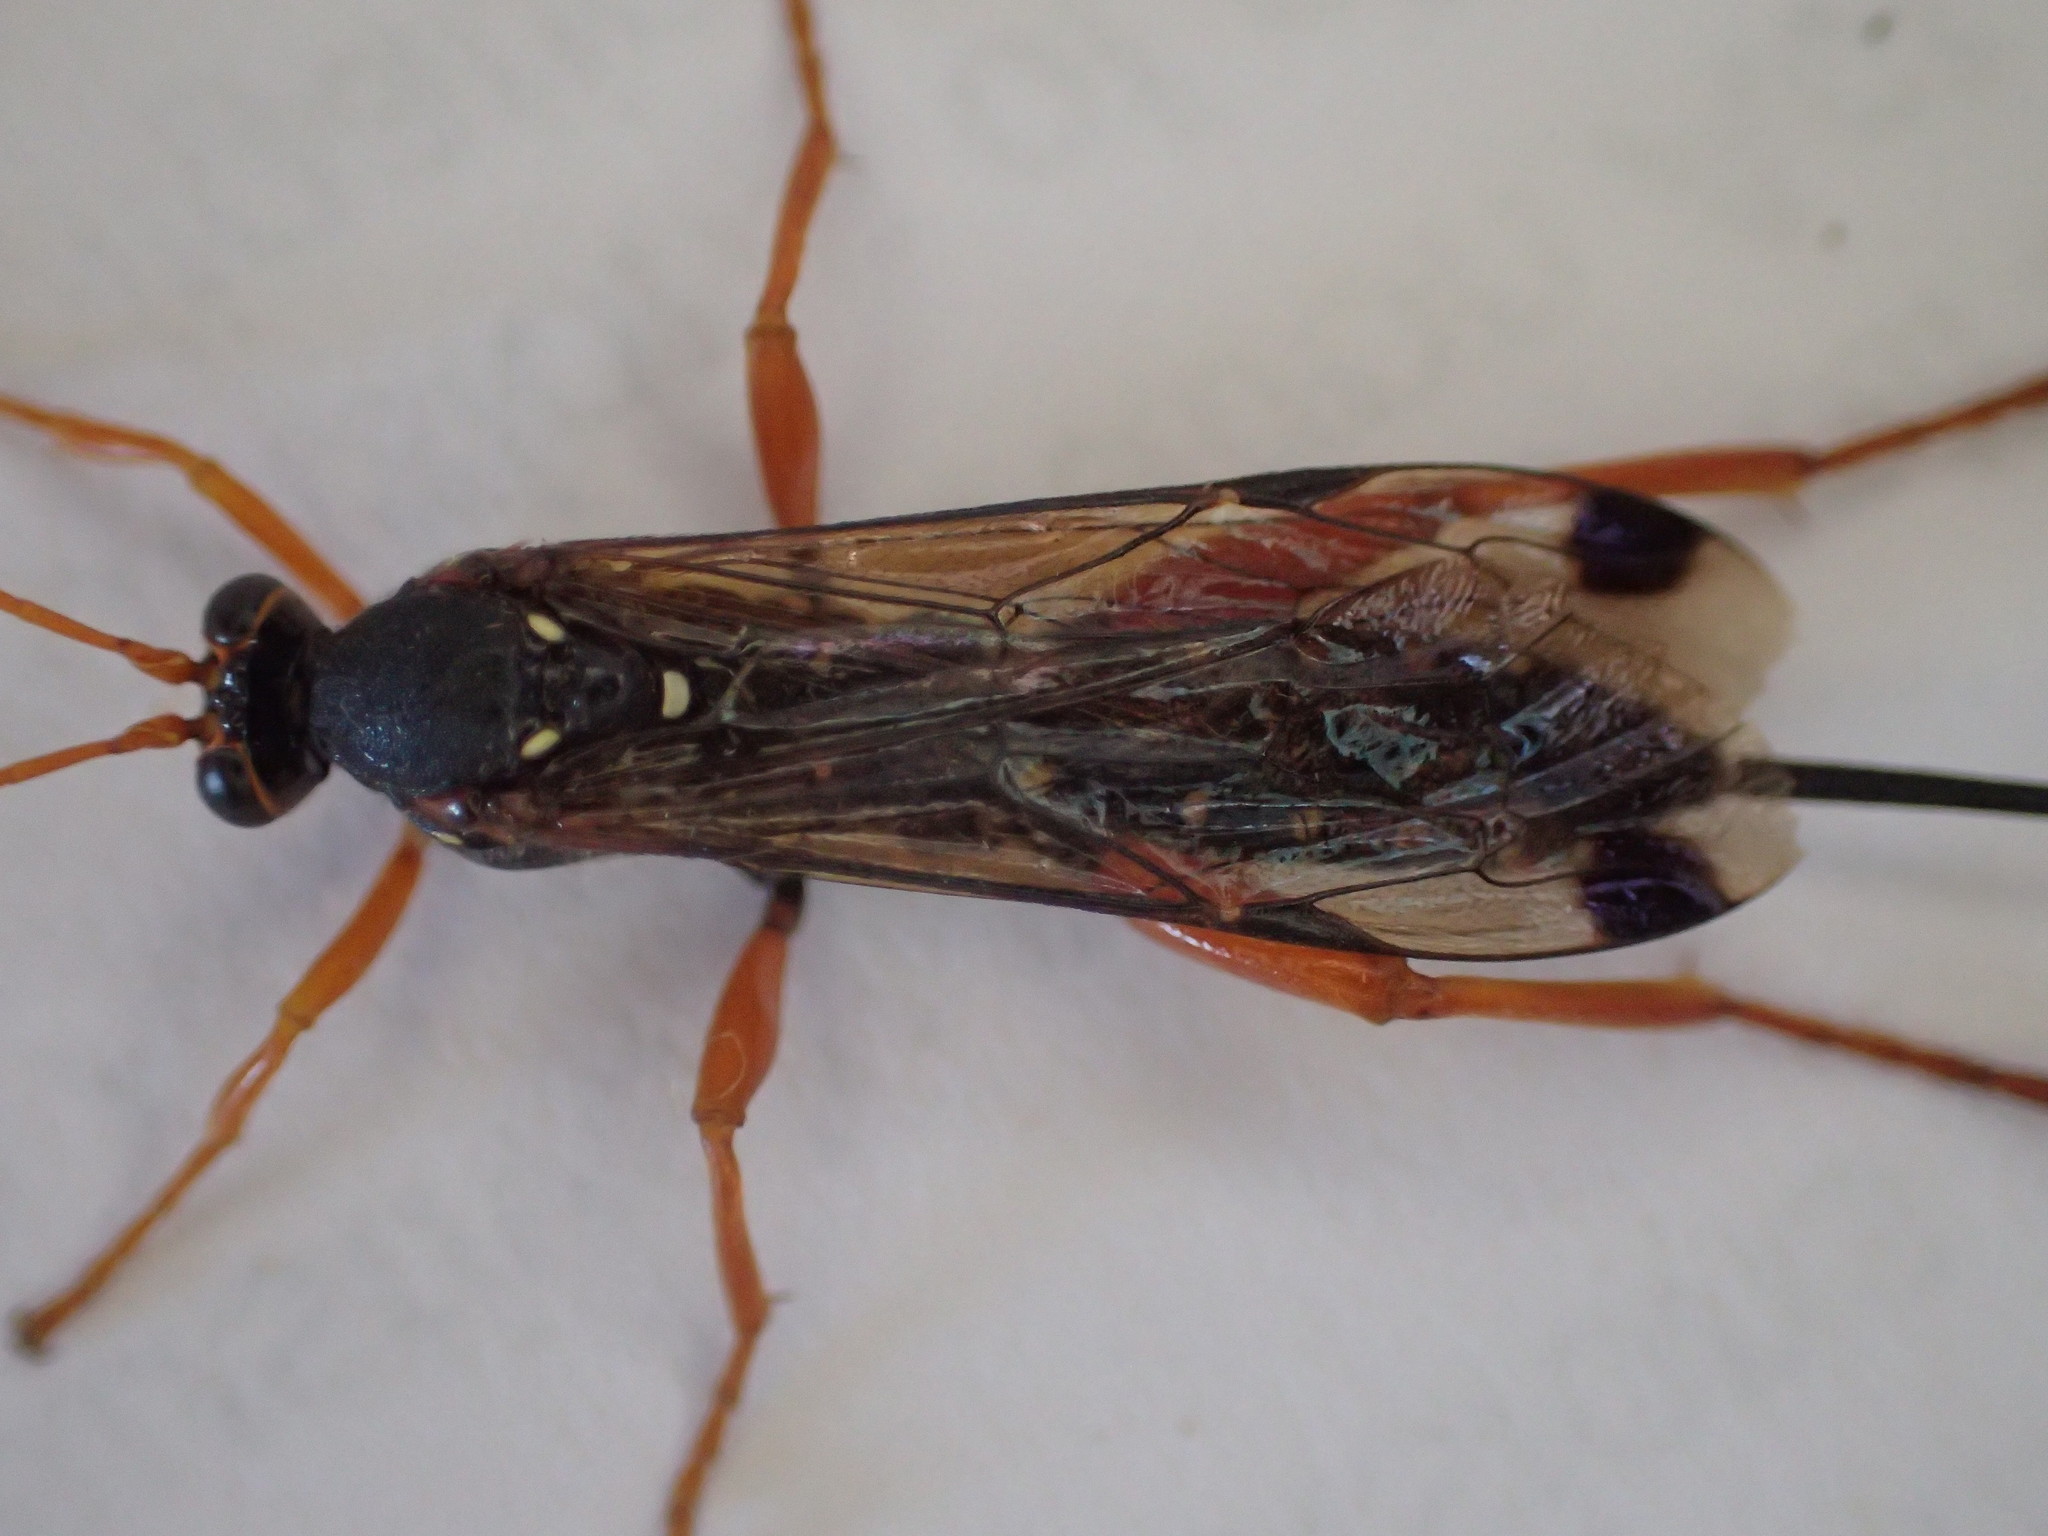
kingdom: Animalia
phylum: Arthropoda
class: Insecta
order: Hymenoptera
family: Ichneumonidae
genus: Echthromorpha
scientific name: Echthromorpha intricatoria
